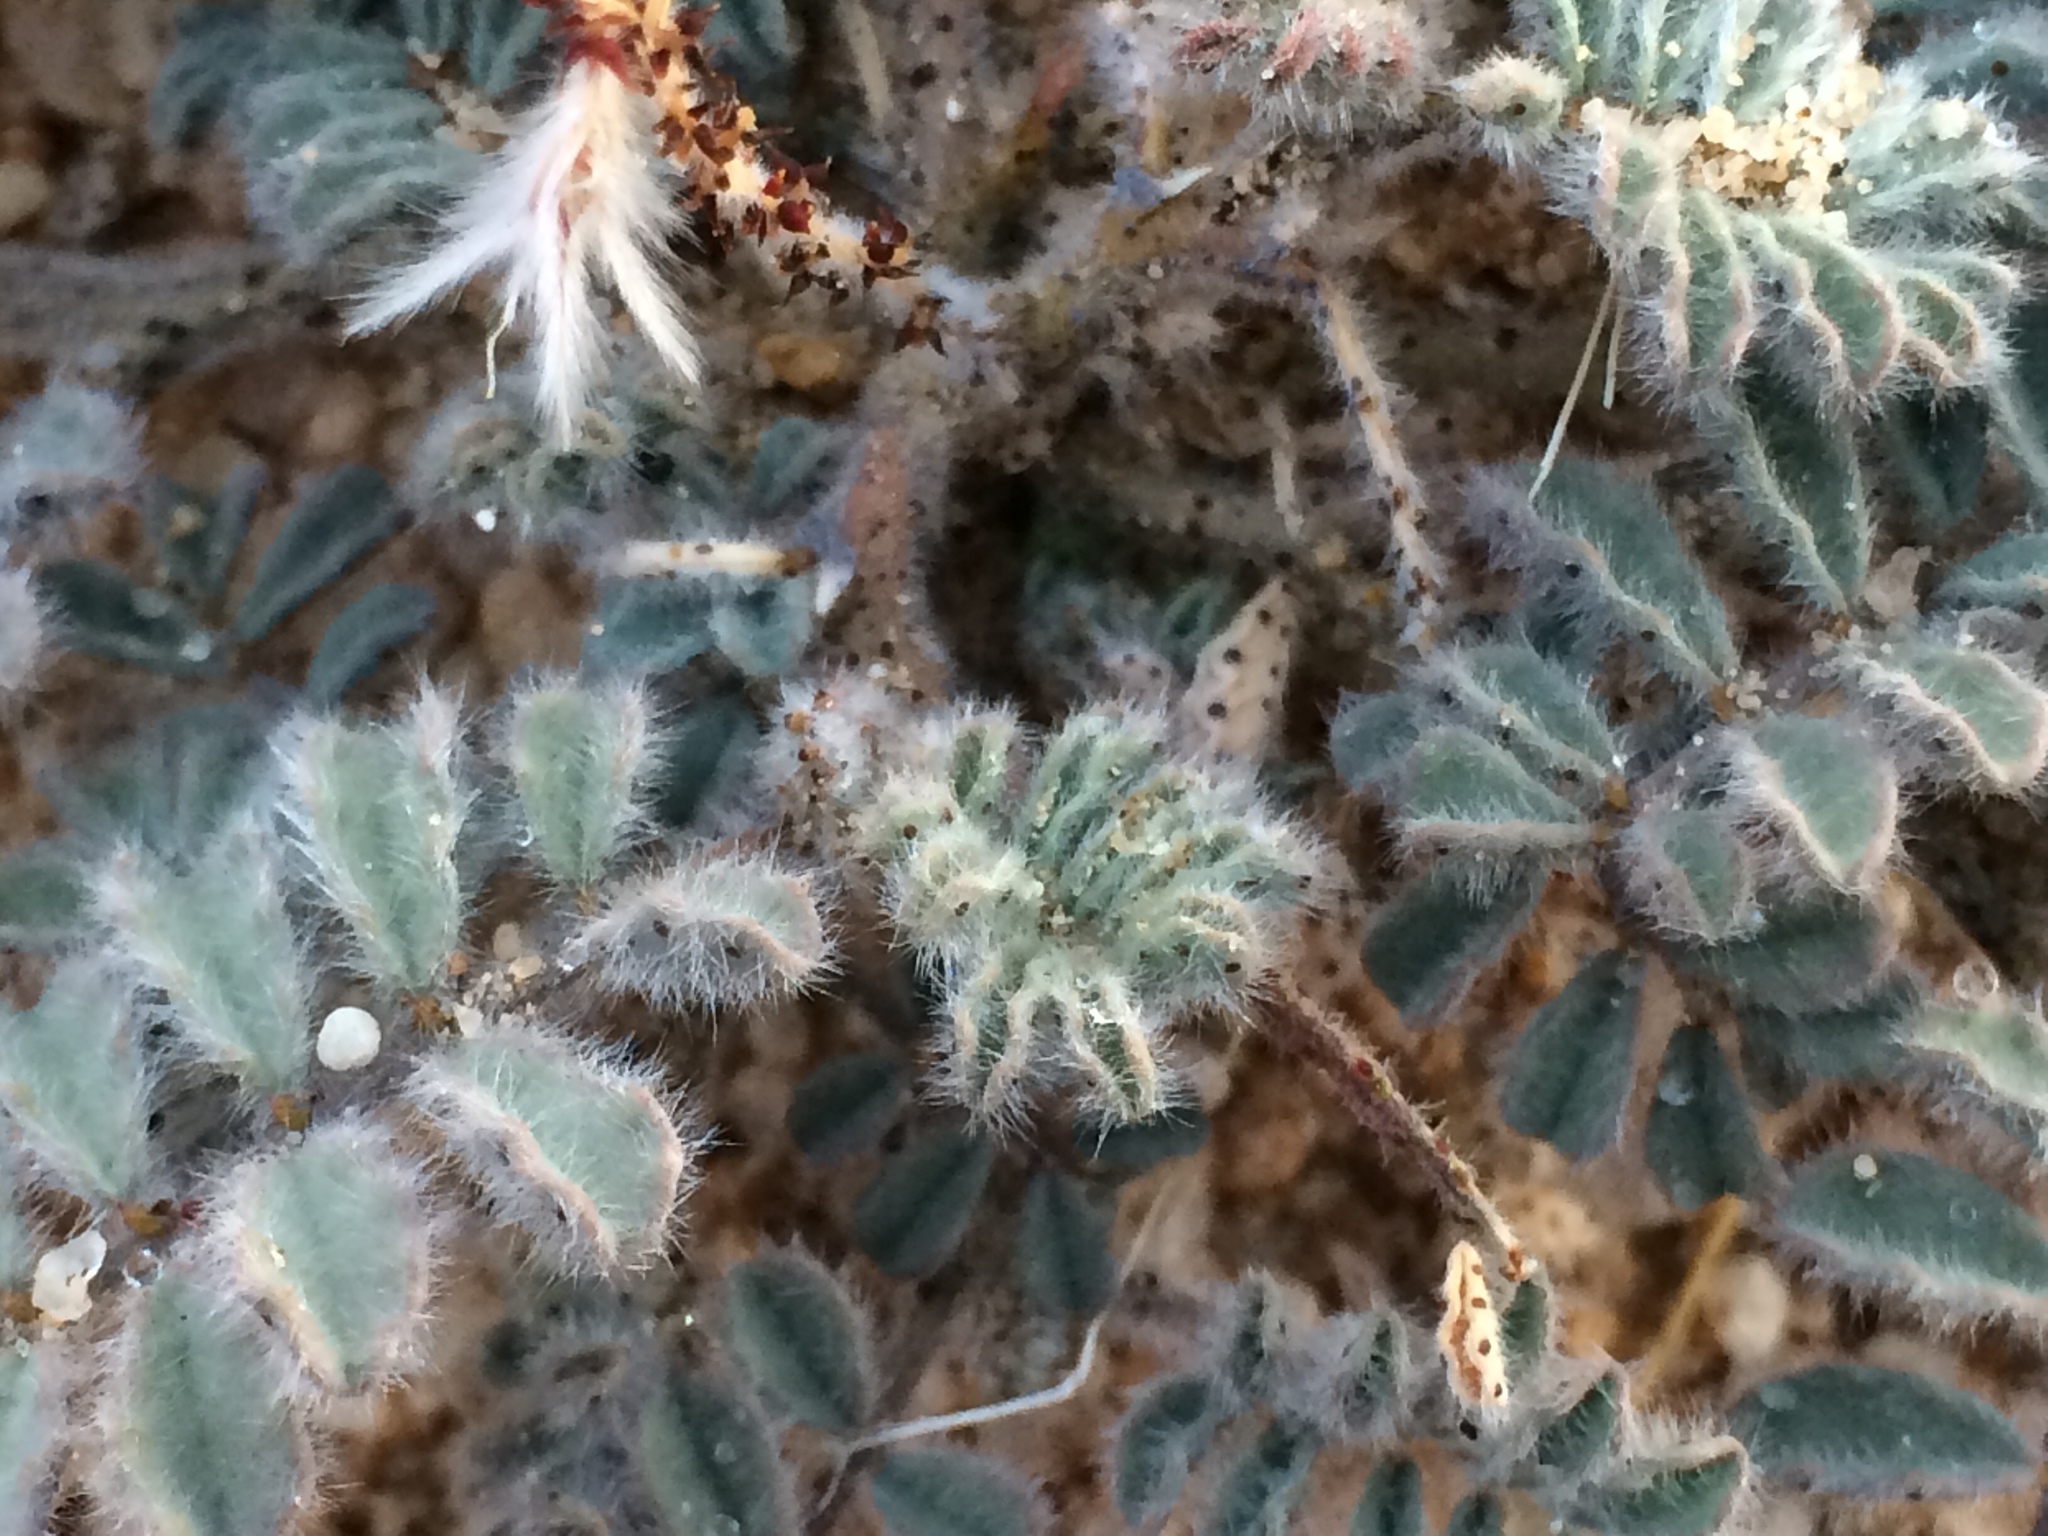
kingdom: Plantae
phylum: Tracheophyta
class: Magnoliopsida
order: Fabales
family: Fabaceae
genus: Dalea
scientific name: Dalea mollissima
